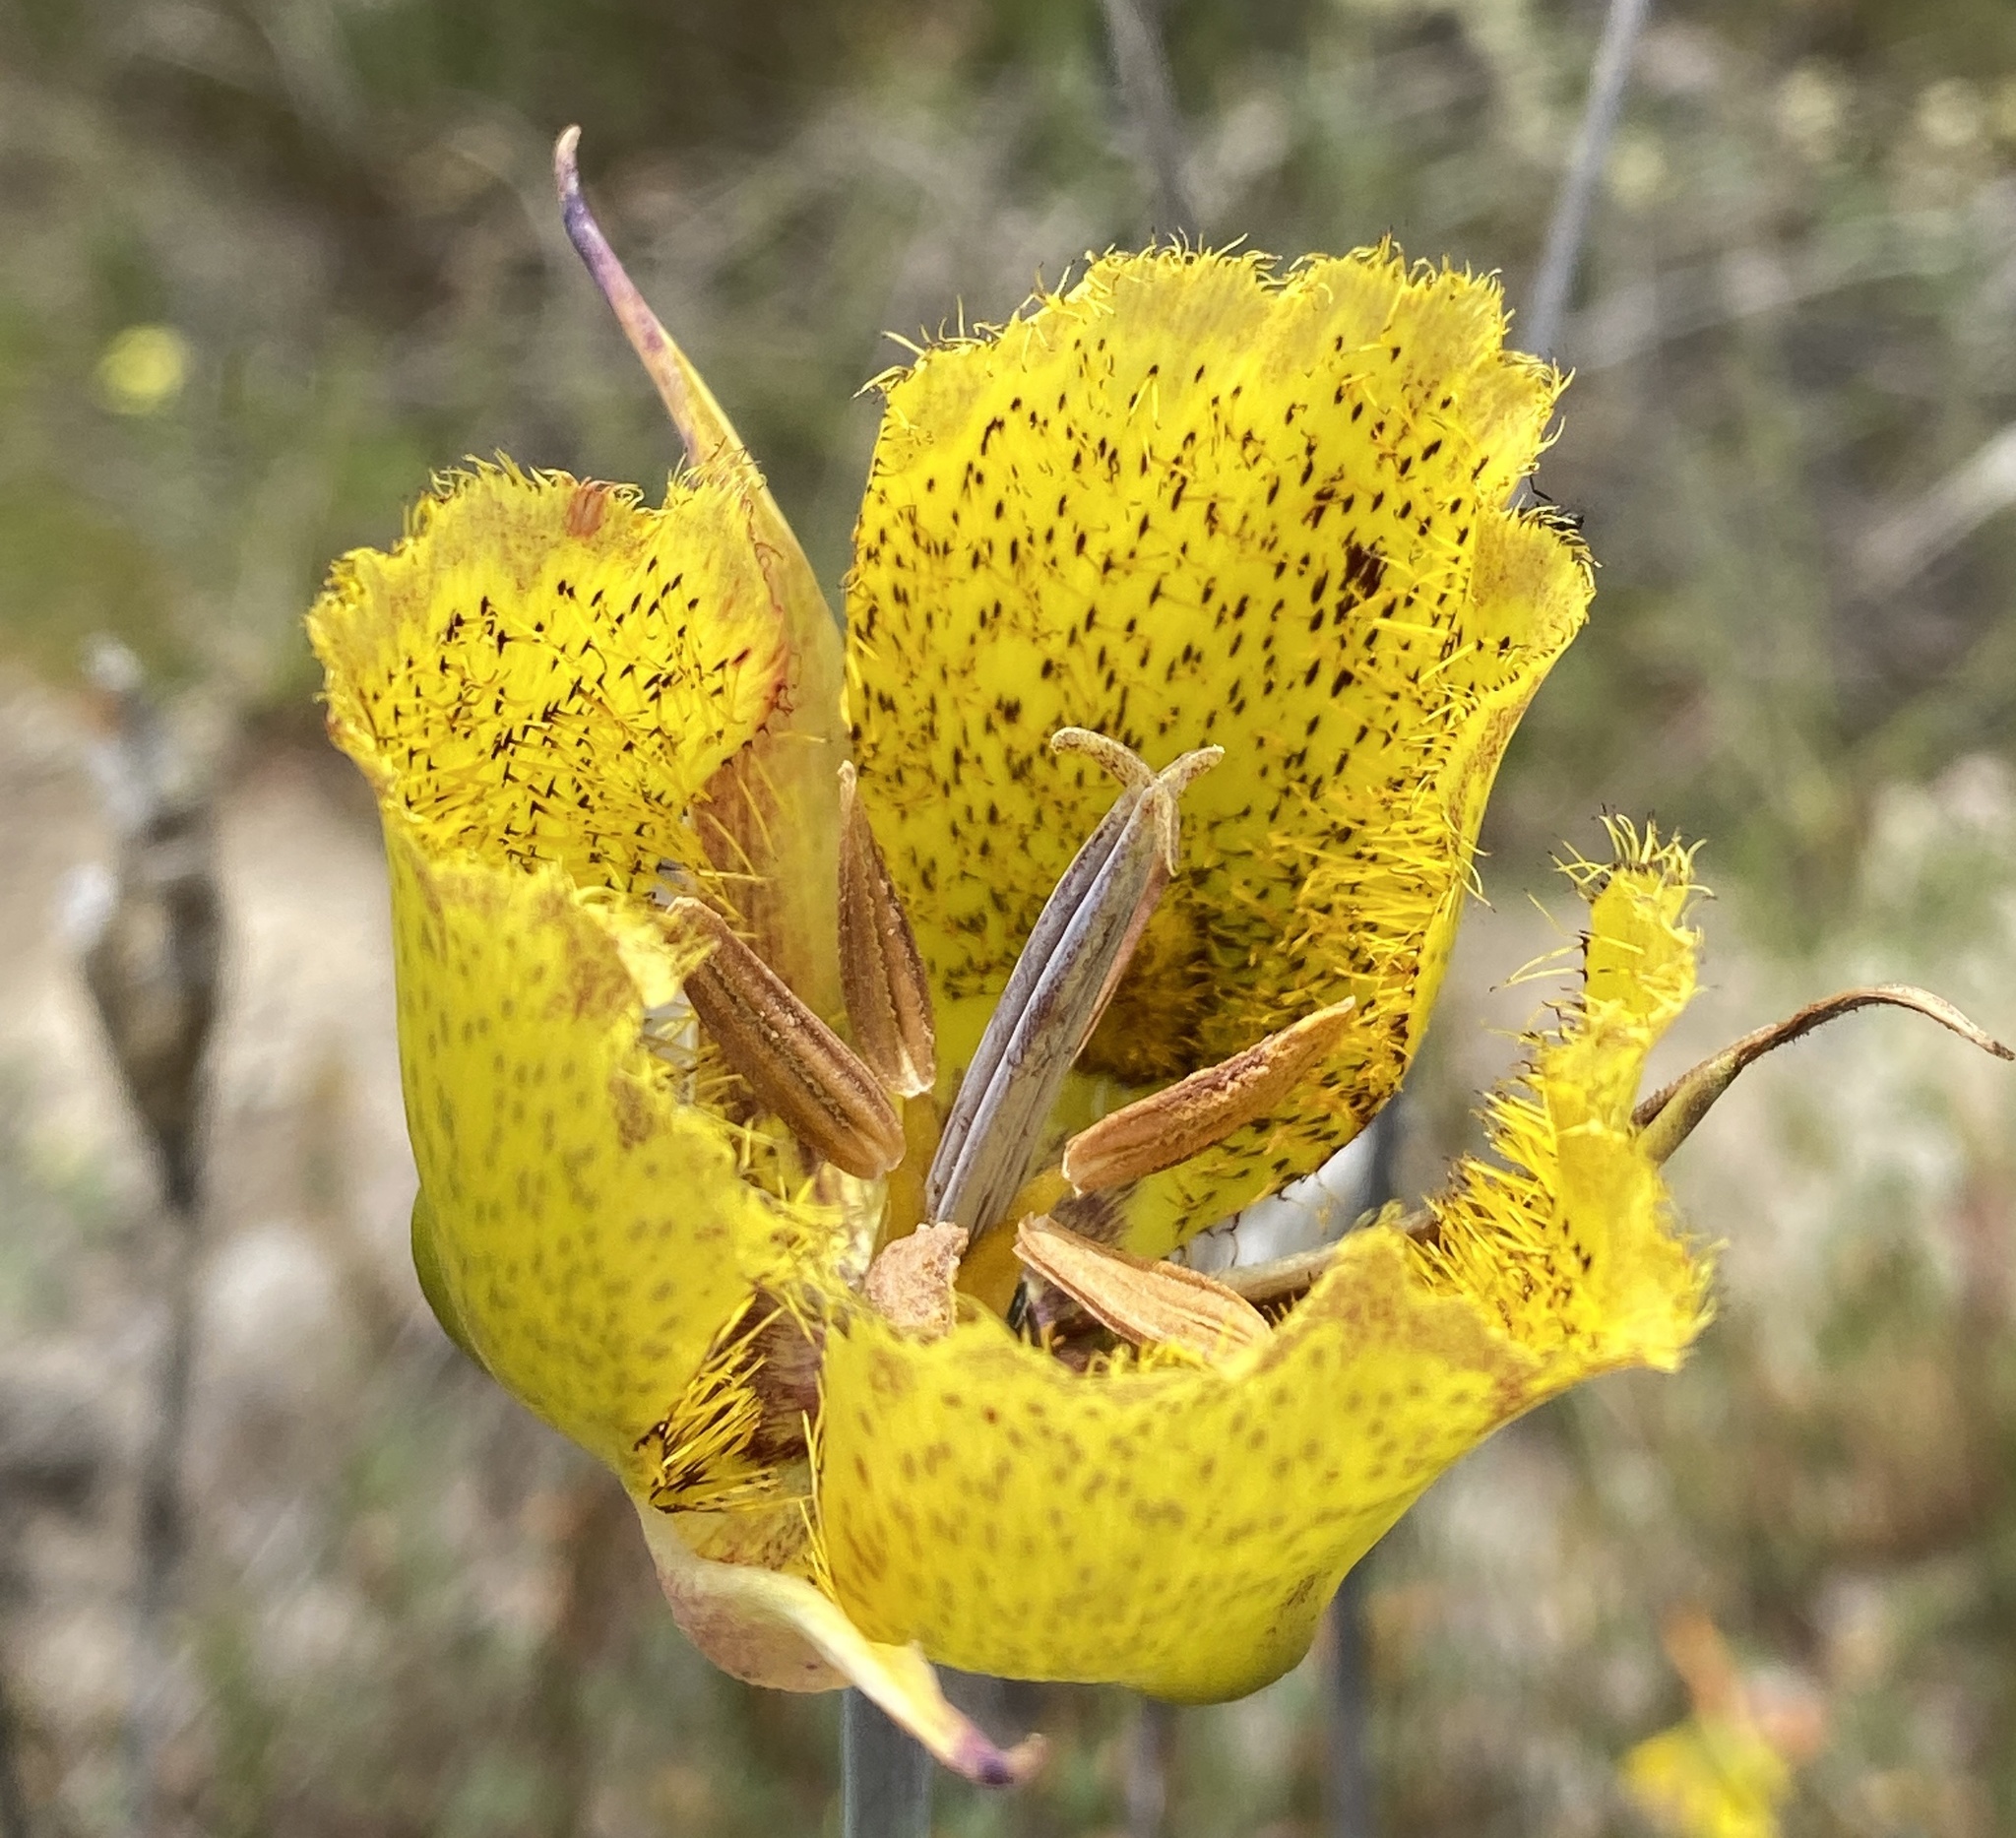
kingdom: Plantae
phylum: Tracheophyta
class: Liliopsida
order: Liliales
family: Liliaceae
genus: Calochortus
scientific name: Calochortus weedii
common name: Weed's mariposa-lily
